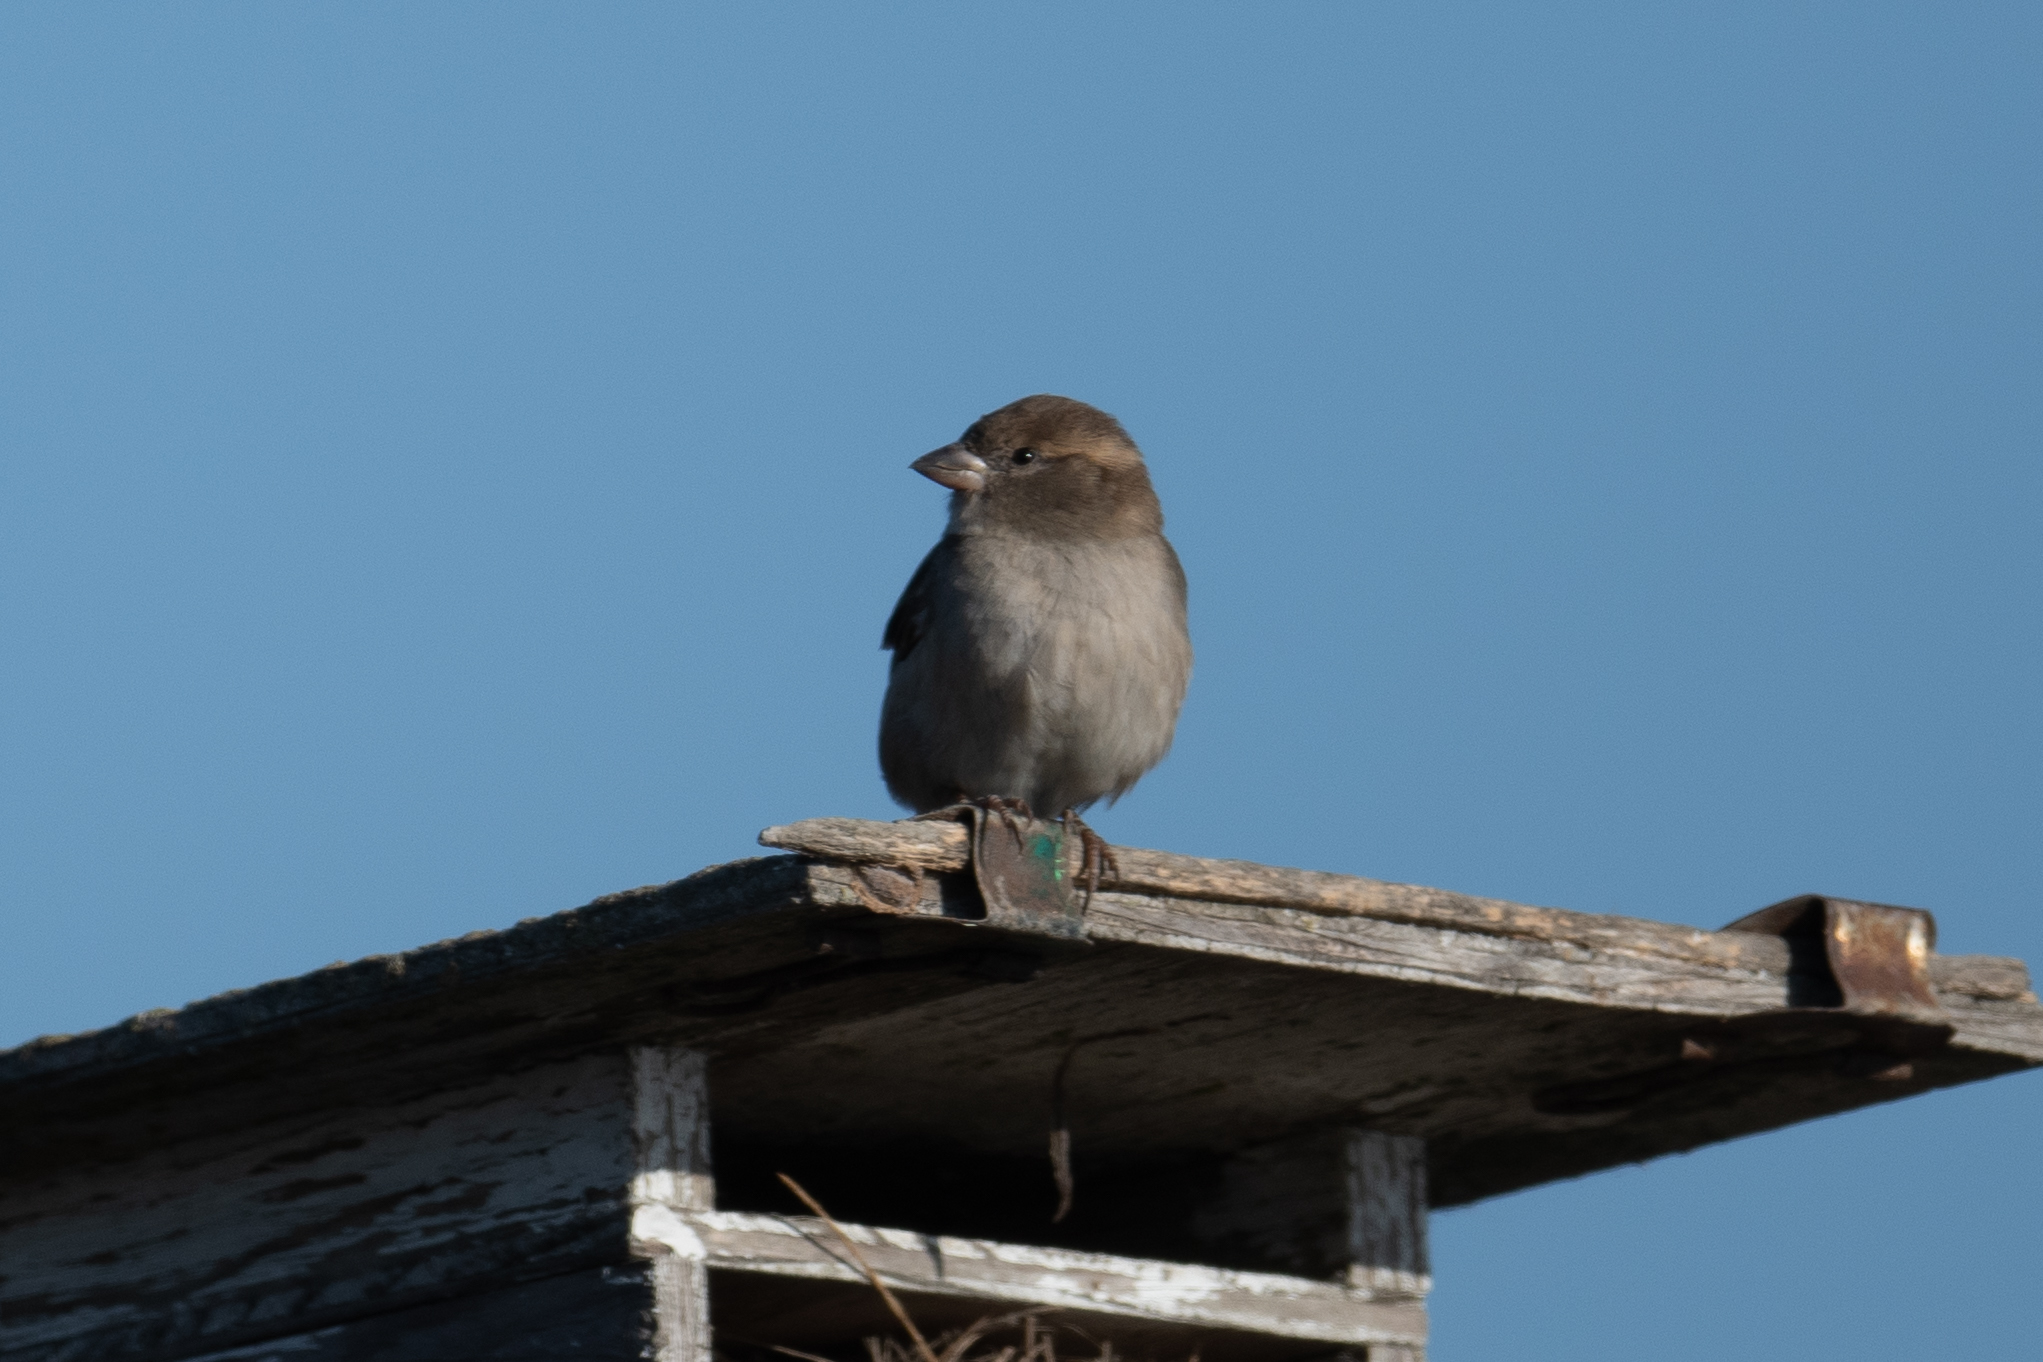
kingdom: Animalia
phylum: Chordata
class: Aves
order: Passeriformes
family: Passeridae
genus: Passer
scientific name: Passer domesticus
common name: House sparrow
